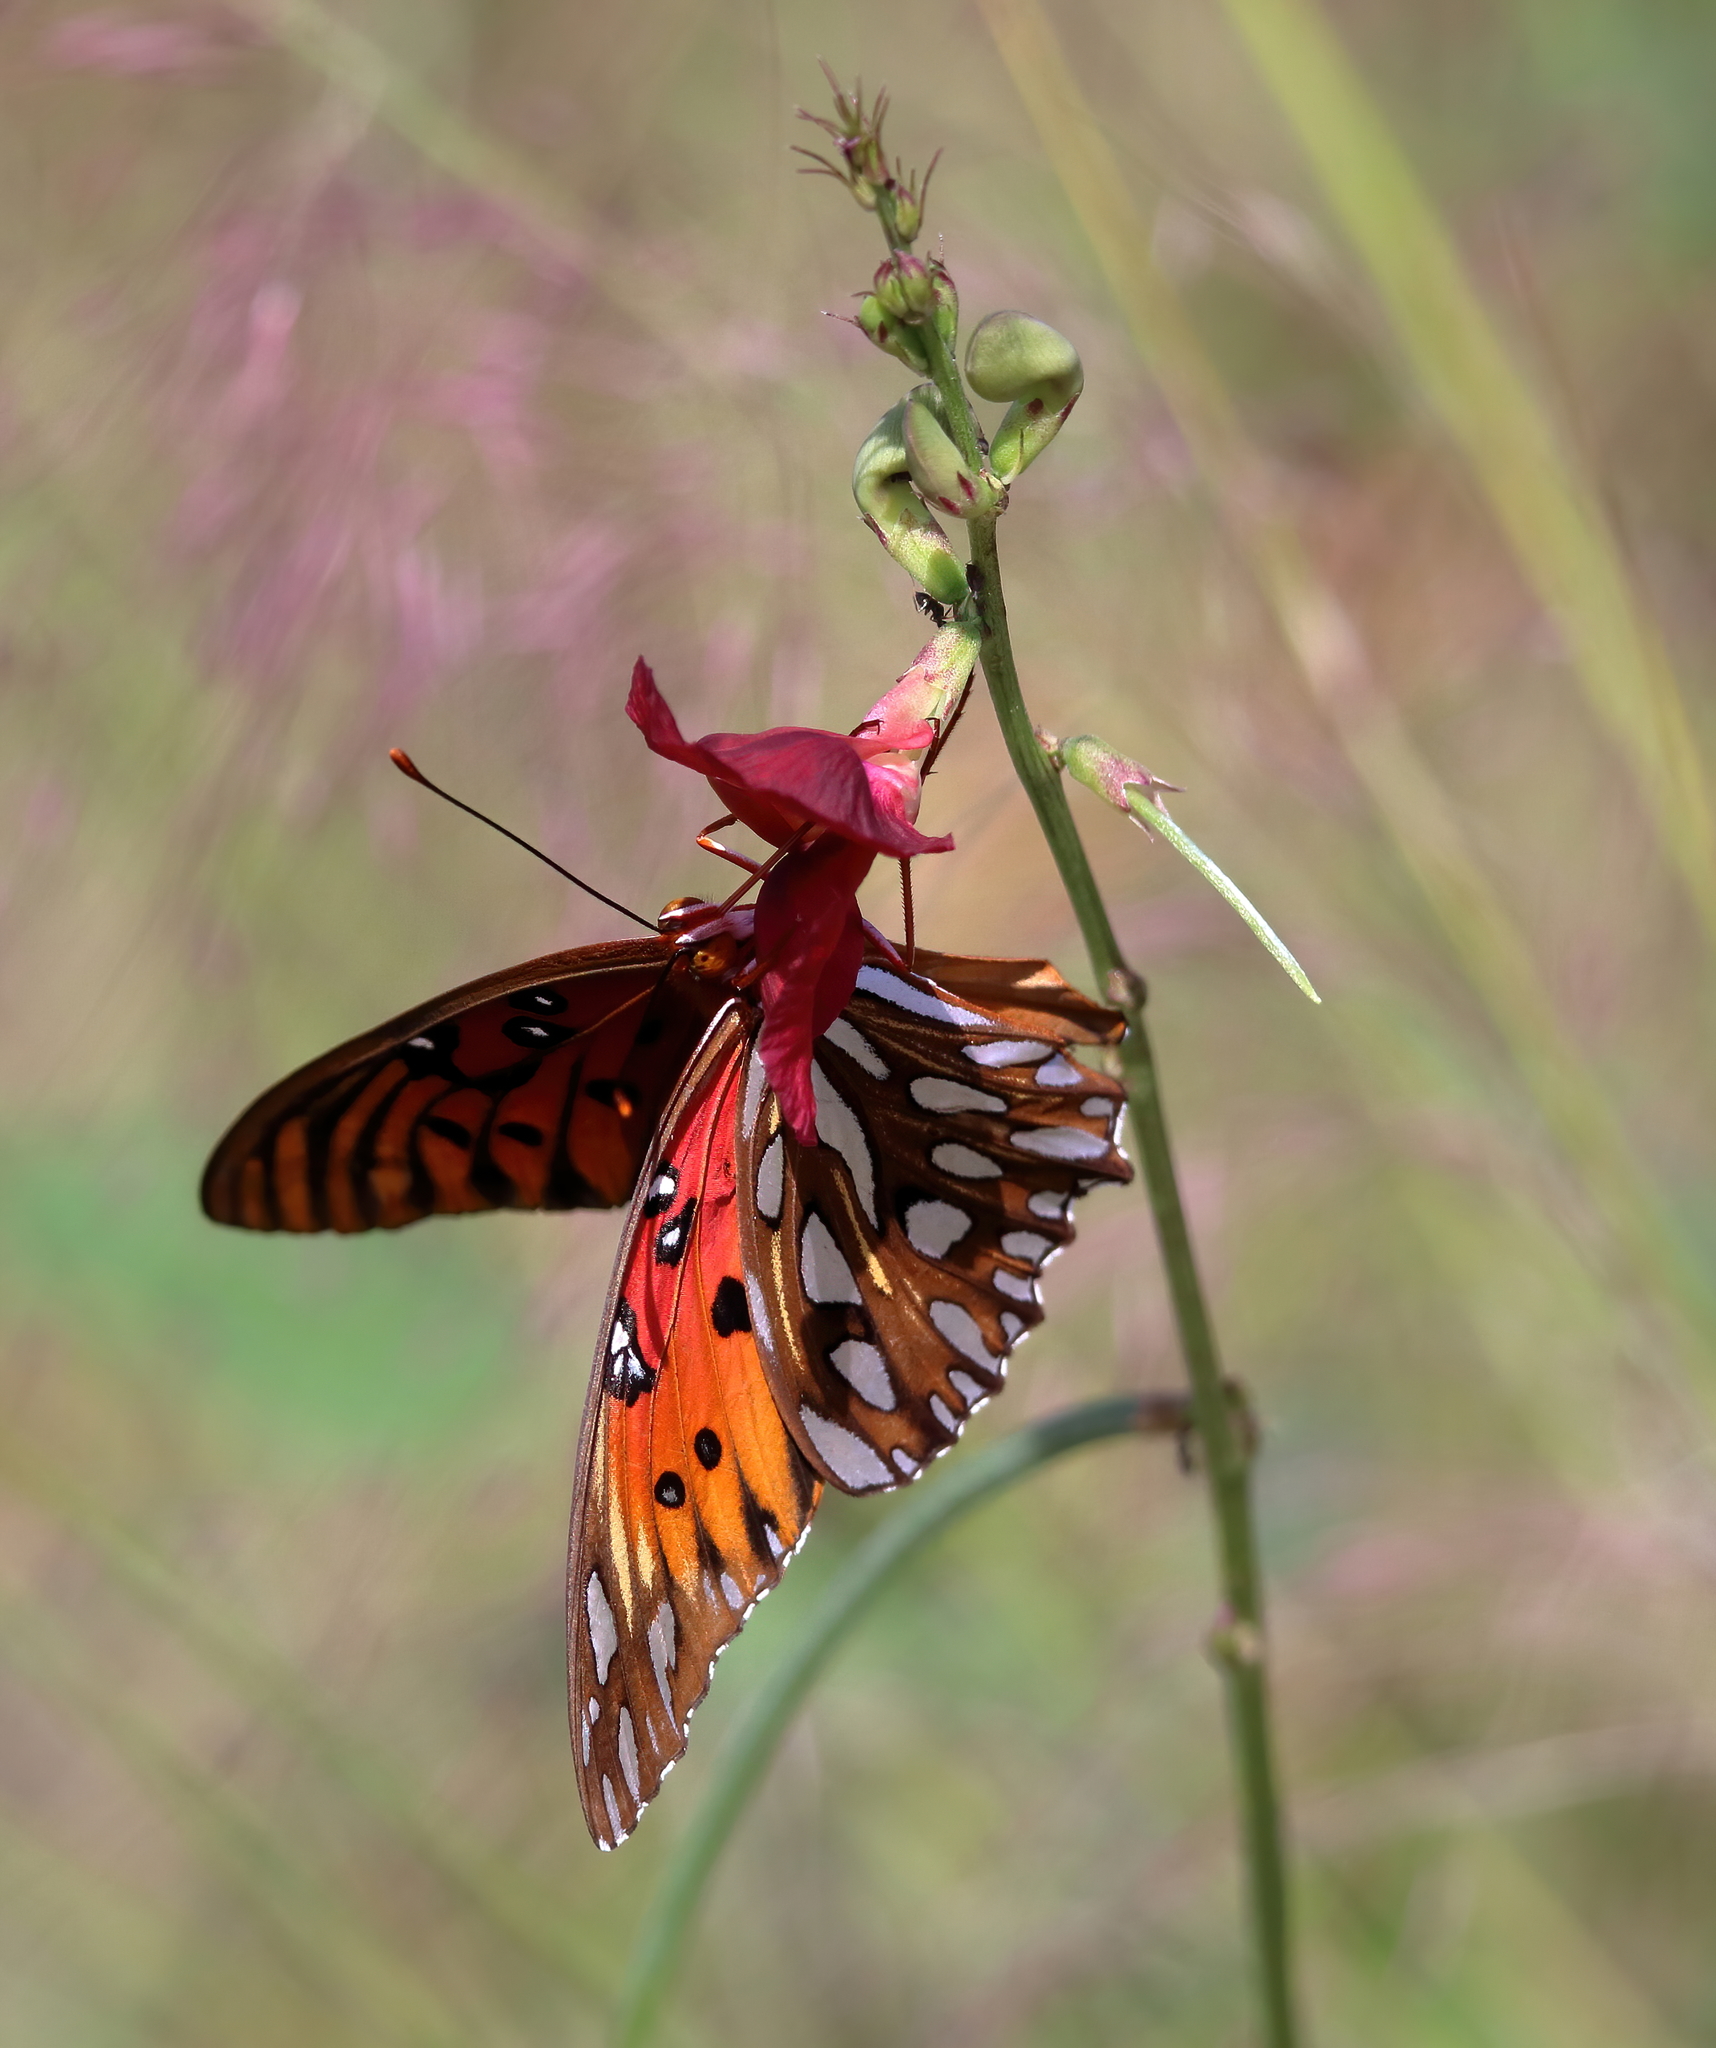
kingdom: Animalia
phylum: Arthropoda
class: Insecta
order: Lepidoptera
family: Nymphalidae
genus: Dione
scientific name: Dione vanillae
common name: Gulf fritillary
